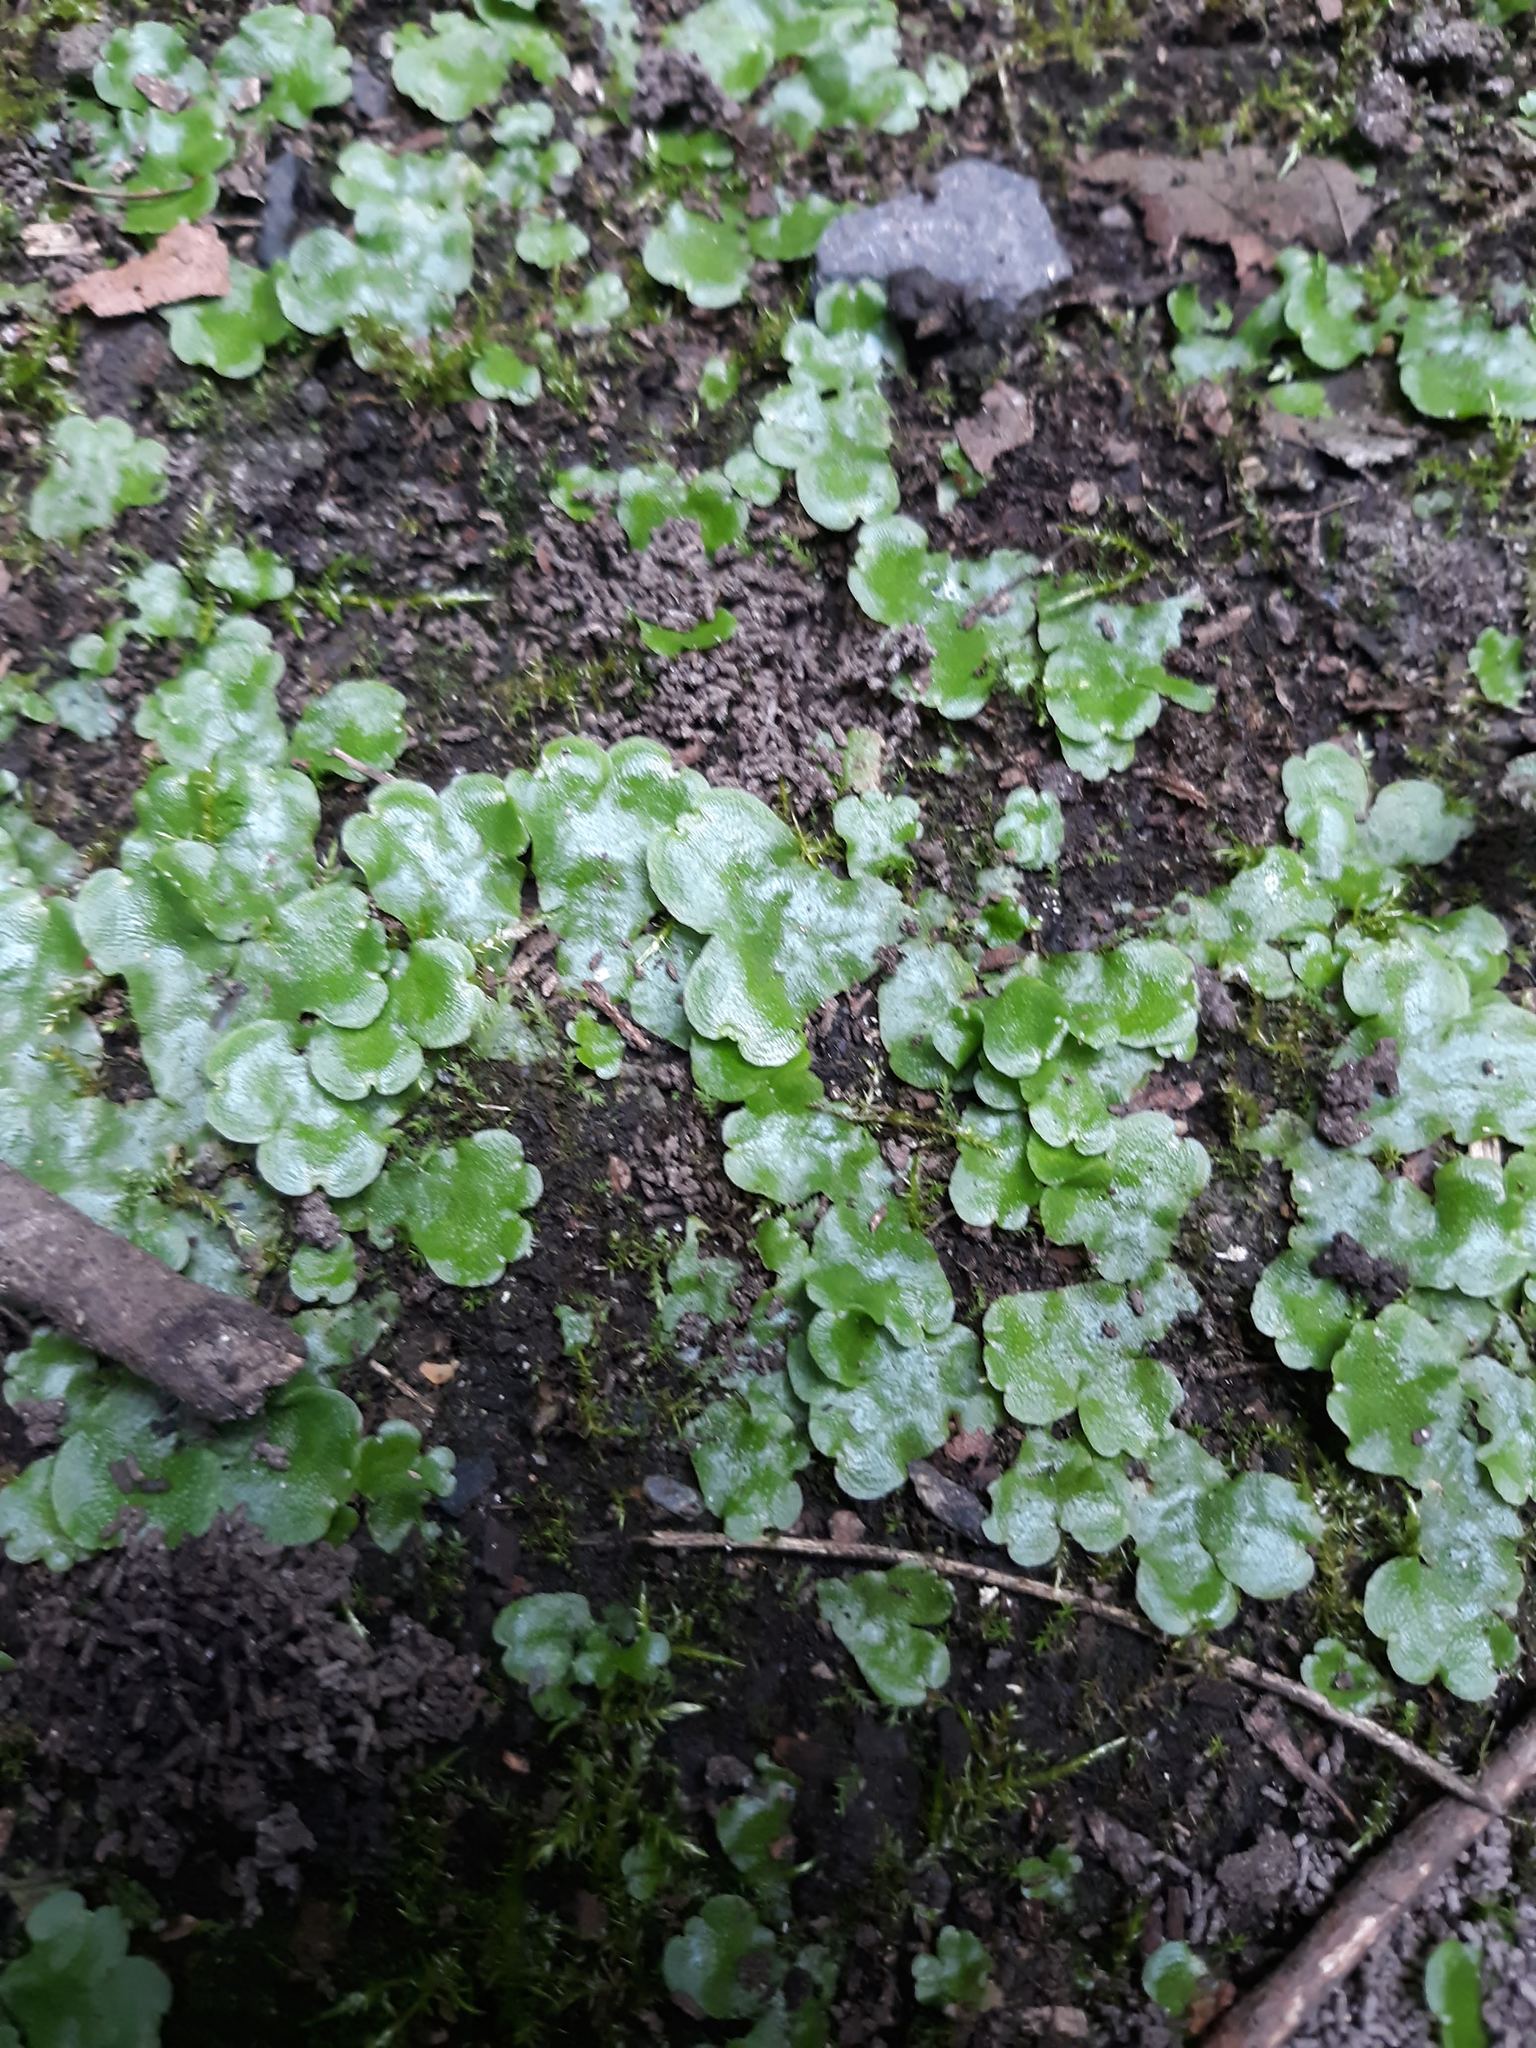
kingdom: Plantae
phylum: Marchantiophyta
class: Marchantiopsida
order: Lunulariales
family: Lunulariaceae
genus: Lunularia
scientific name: Lunularia cruciata
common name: Crescent-cup liverwort
